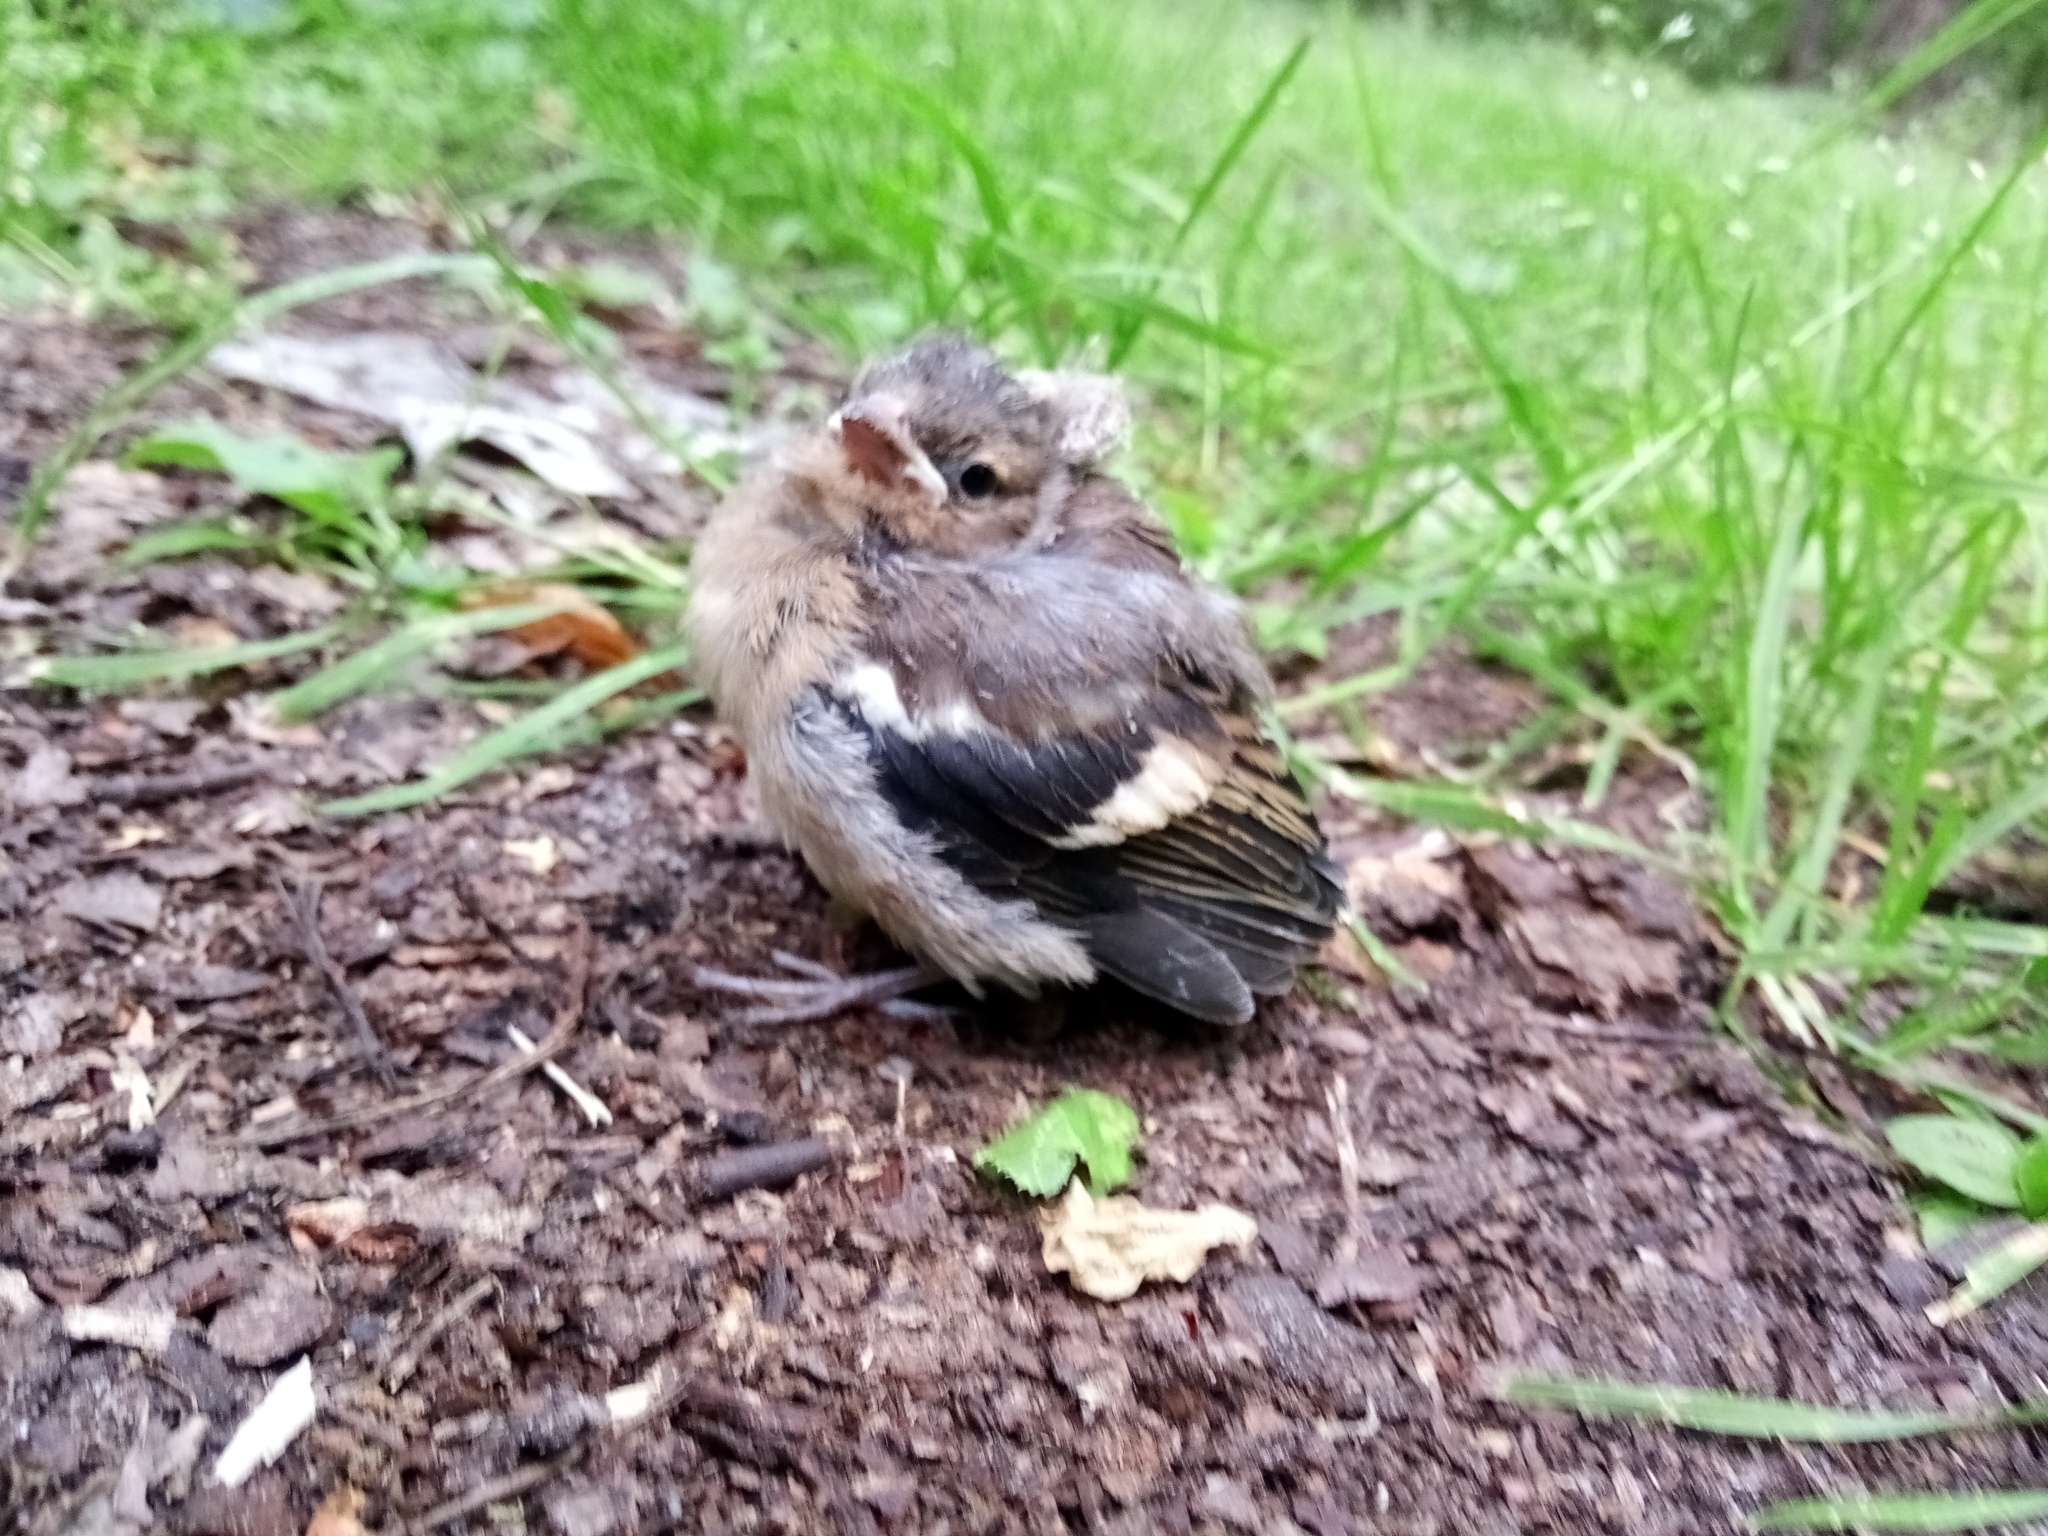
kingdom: Animalia
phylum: Chordata
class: Aves
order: Passeriformes
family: Fringillidae
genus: Fringilla
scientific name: Fringilla coelebs
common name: Common chaffinch
